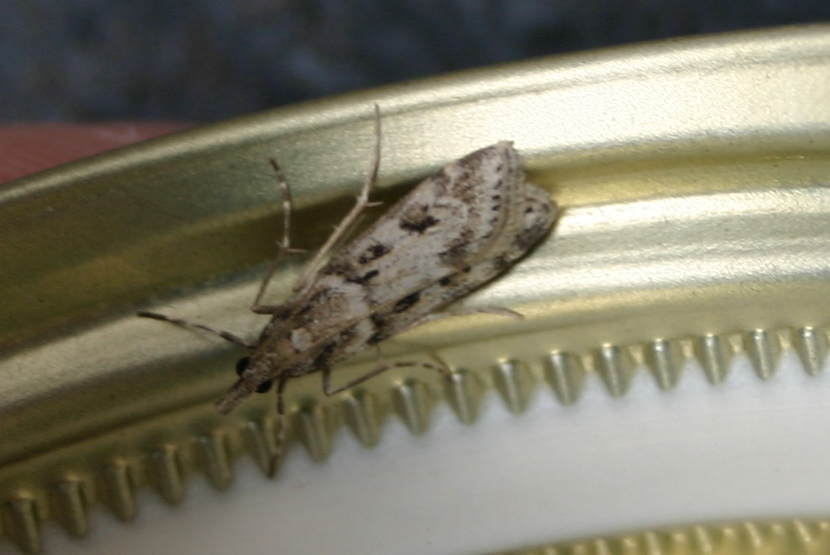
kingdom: Animalia
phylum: Arthropoda
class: Insecta
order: Lepidoptera
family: Crambidae
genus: Eudonia
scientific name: Eudonia angustea
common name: Narrow-winged grey
